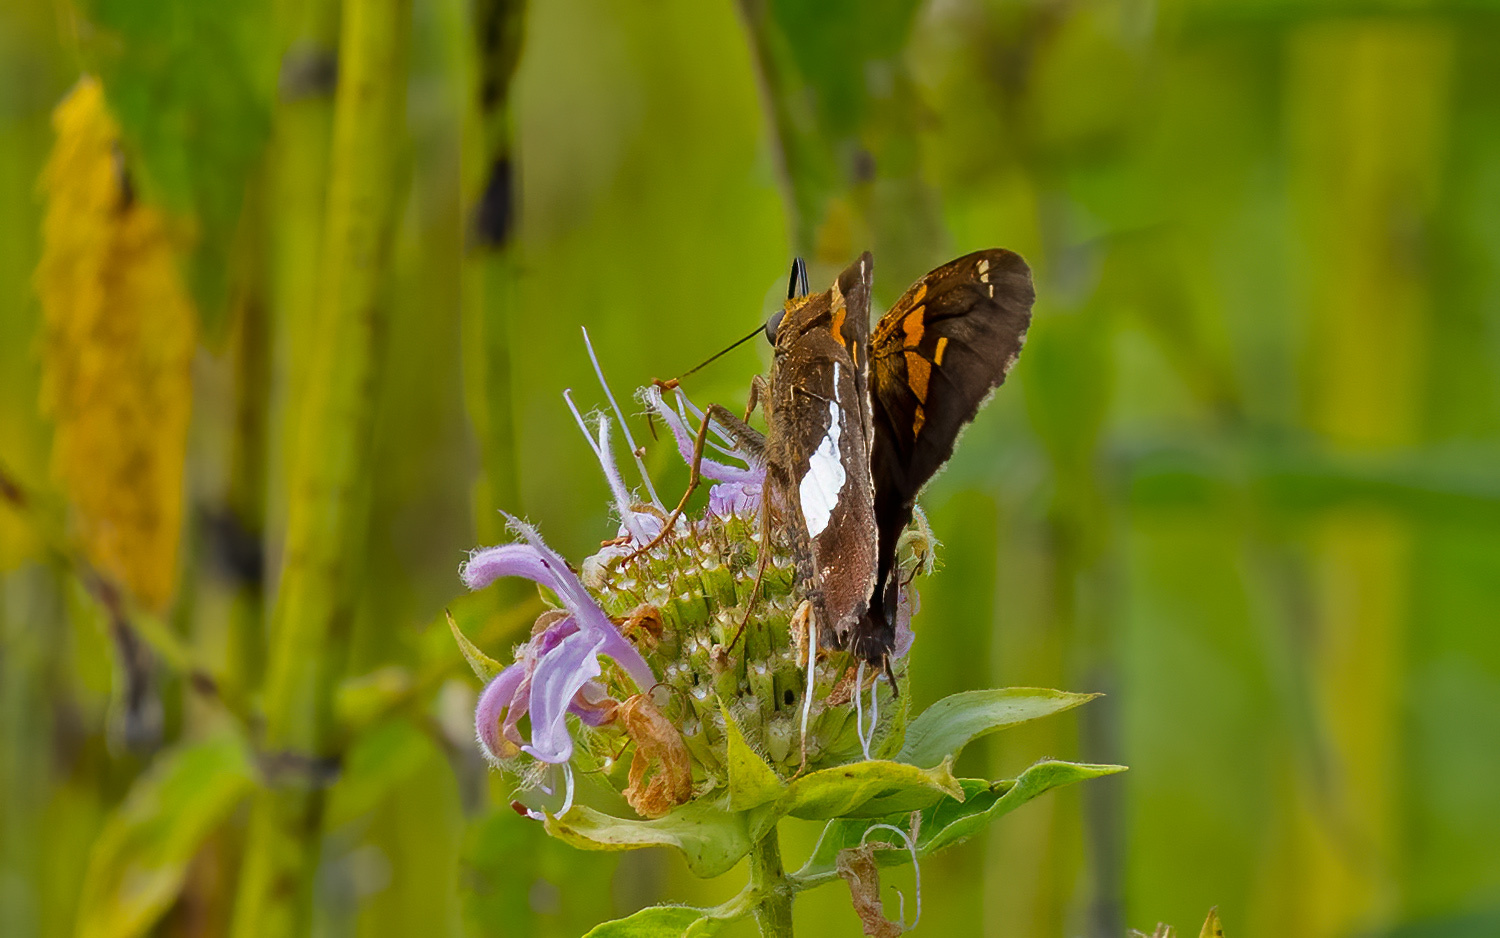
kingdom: Animalia
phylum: Arthropoda
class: Insecta
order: Lepidoptera
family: Hesperiidae
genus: Epargyreus
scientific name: Epargyreus clarus
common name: Silver-spotted skipper
